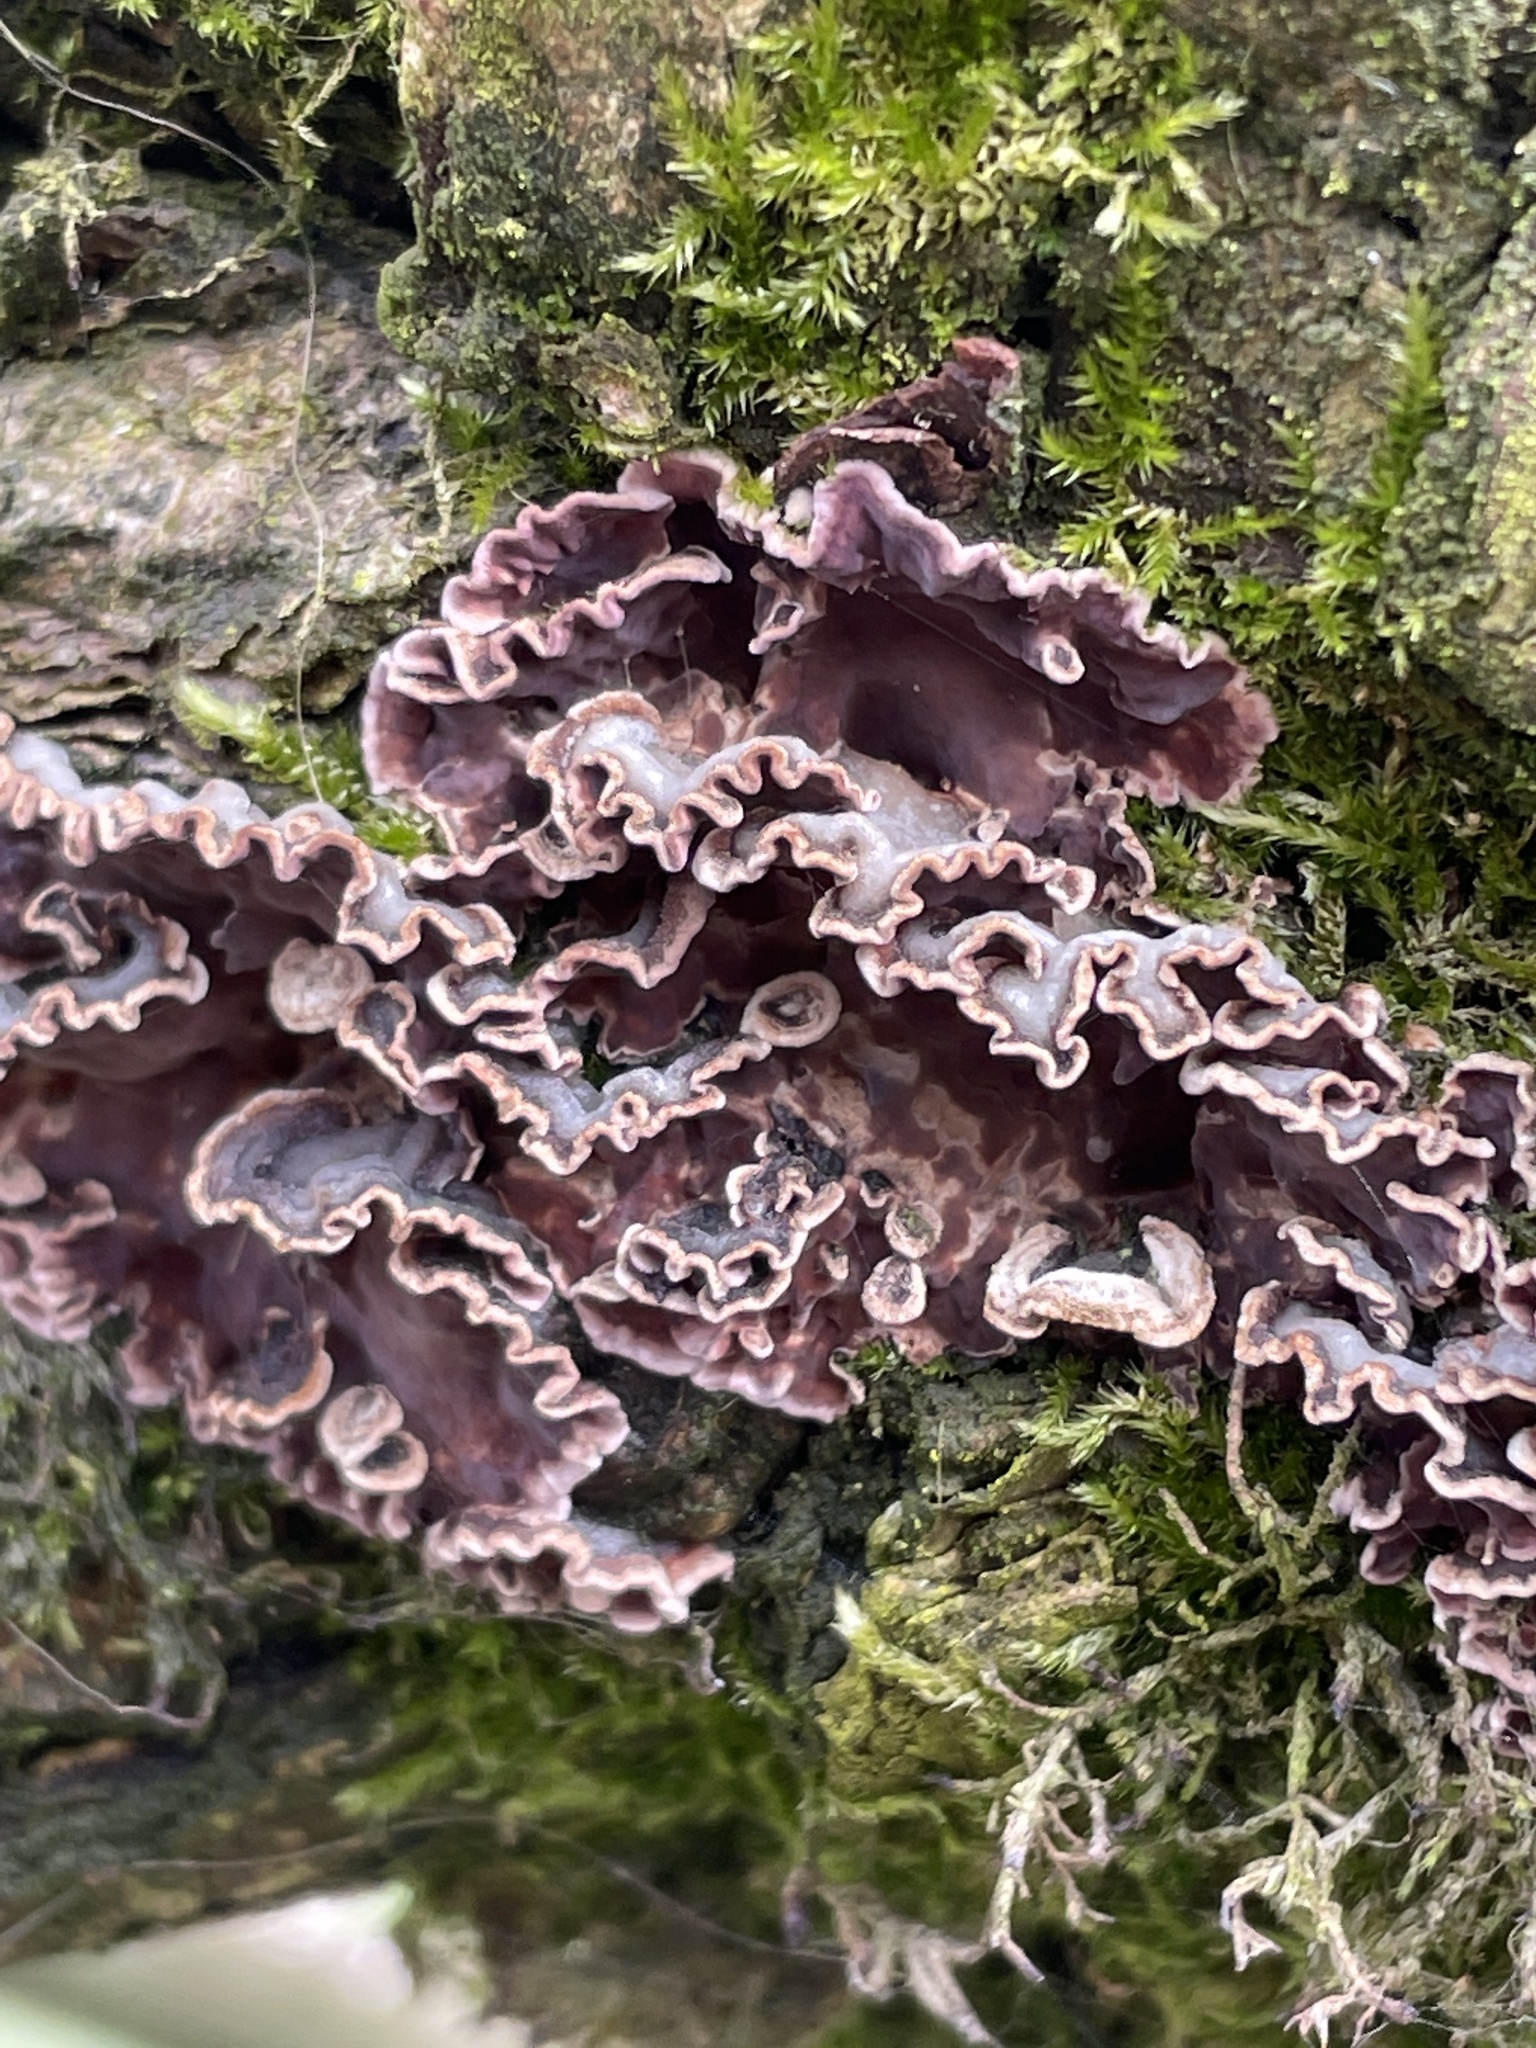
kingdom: Fungi
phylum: Basidiomycota
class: Agaricomycetes
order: Agaricales
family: Cyphellaceae
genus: Chondrostereum
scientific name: Chondrostereum purpureum
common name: Silver leaf disease
